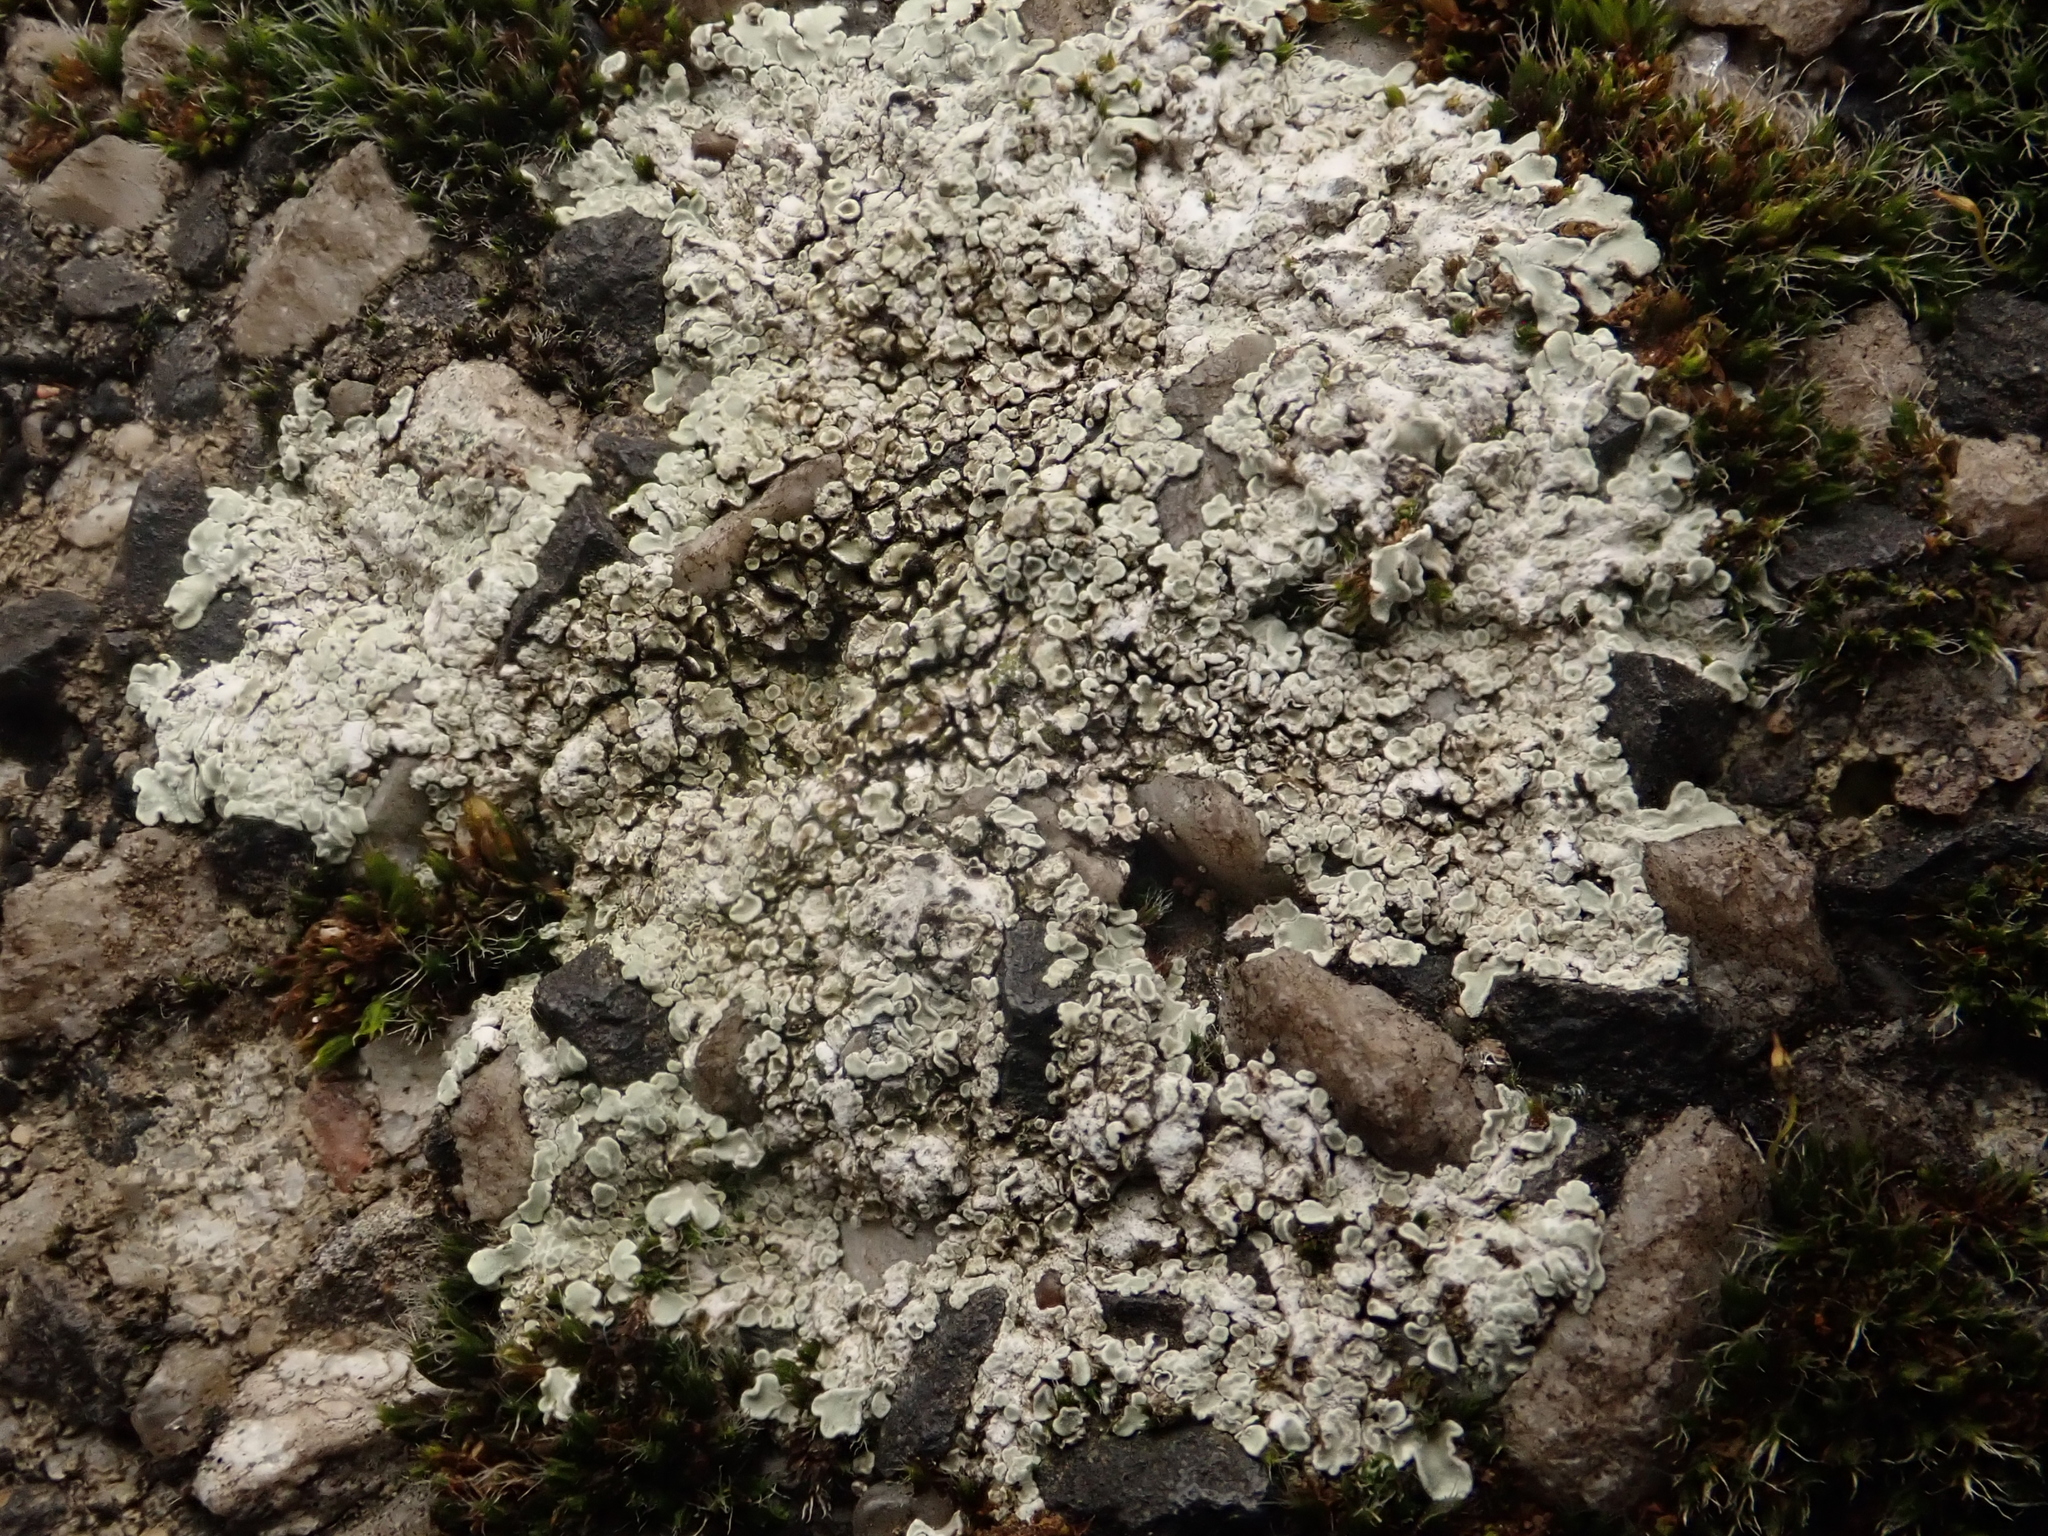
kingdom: Fungi
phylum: Ascomycota
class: Lecanoromycetes
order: Lecanorales
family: Lecanoraceae
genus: Protoparmeliopsis
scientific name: Protoparmeliopsis muralis
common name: Stonewall rim lichen
